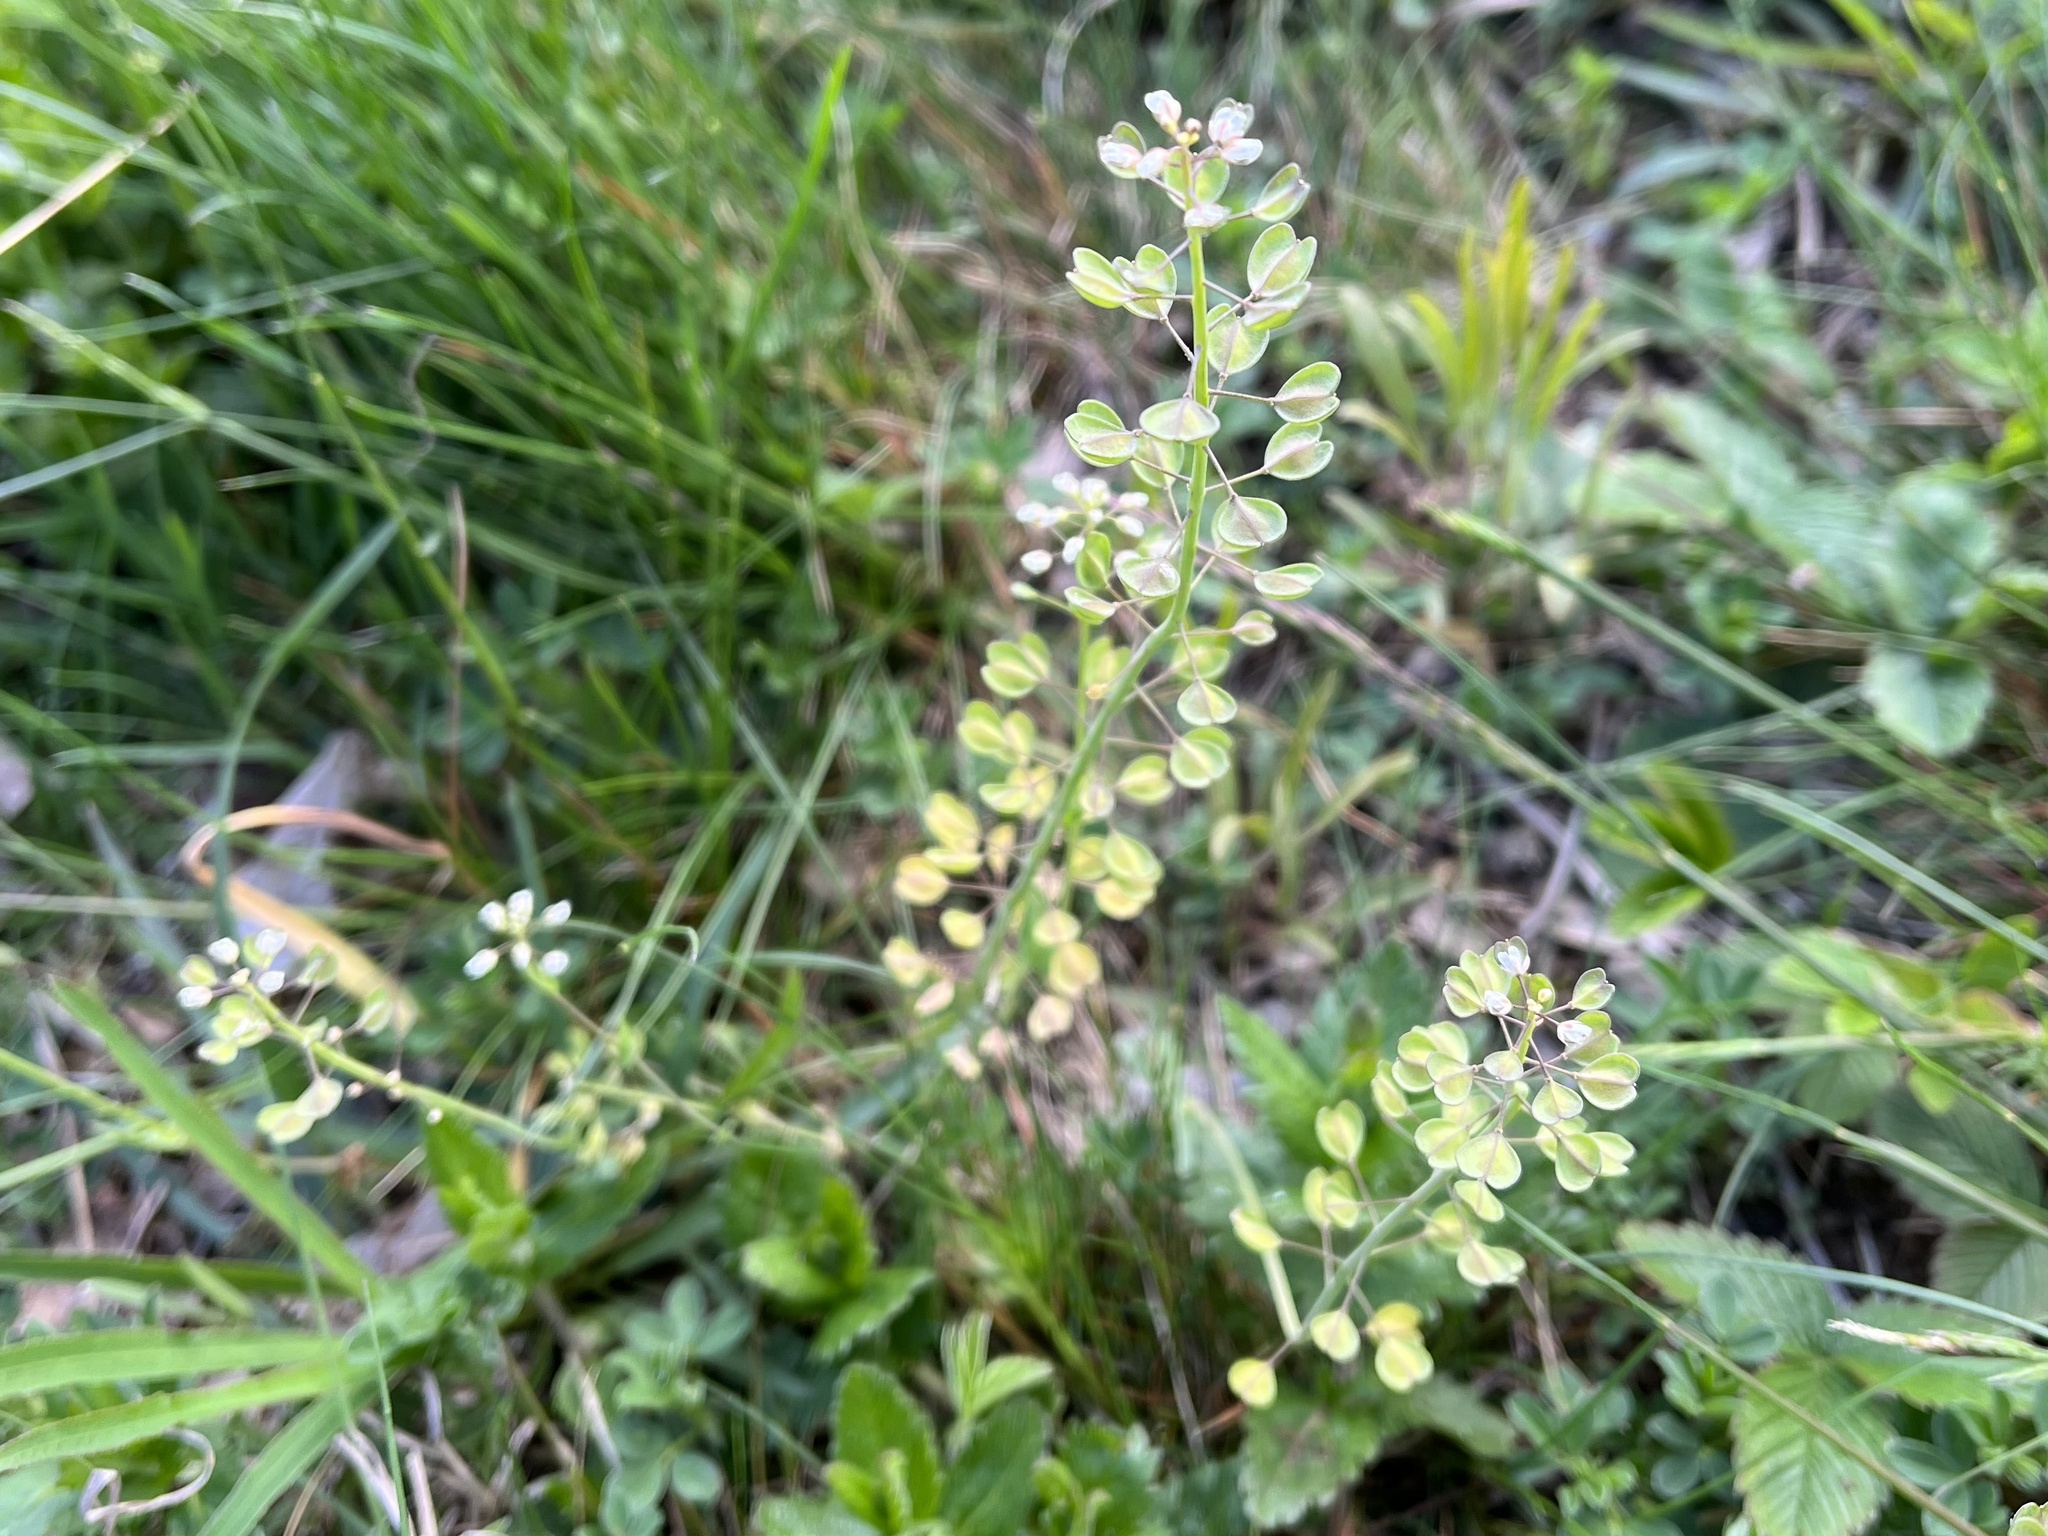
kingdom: Plantae
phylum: Tracheophyta
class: Magnoliopsida
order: Brassicales
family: Brassicaceae
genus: Noccaea
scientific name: Noccaea perfoliata
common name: Perfoliate pennycress
